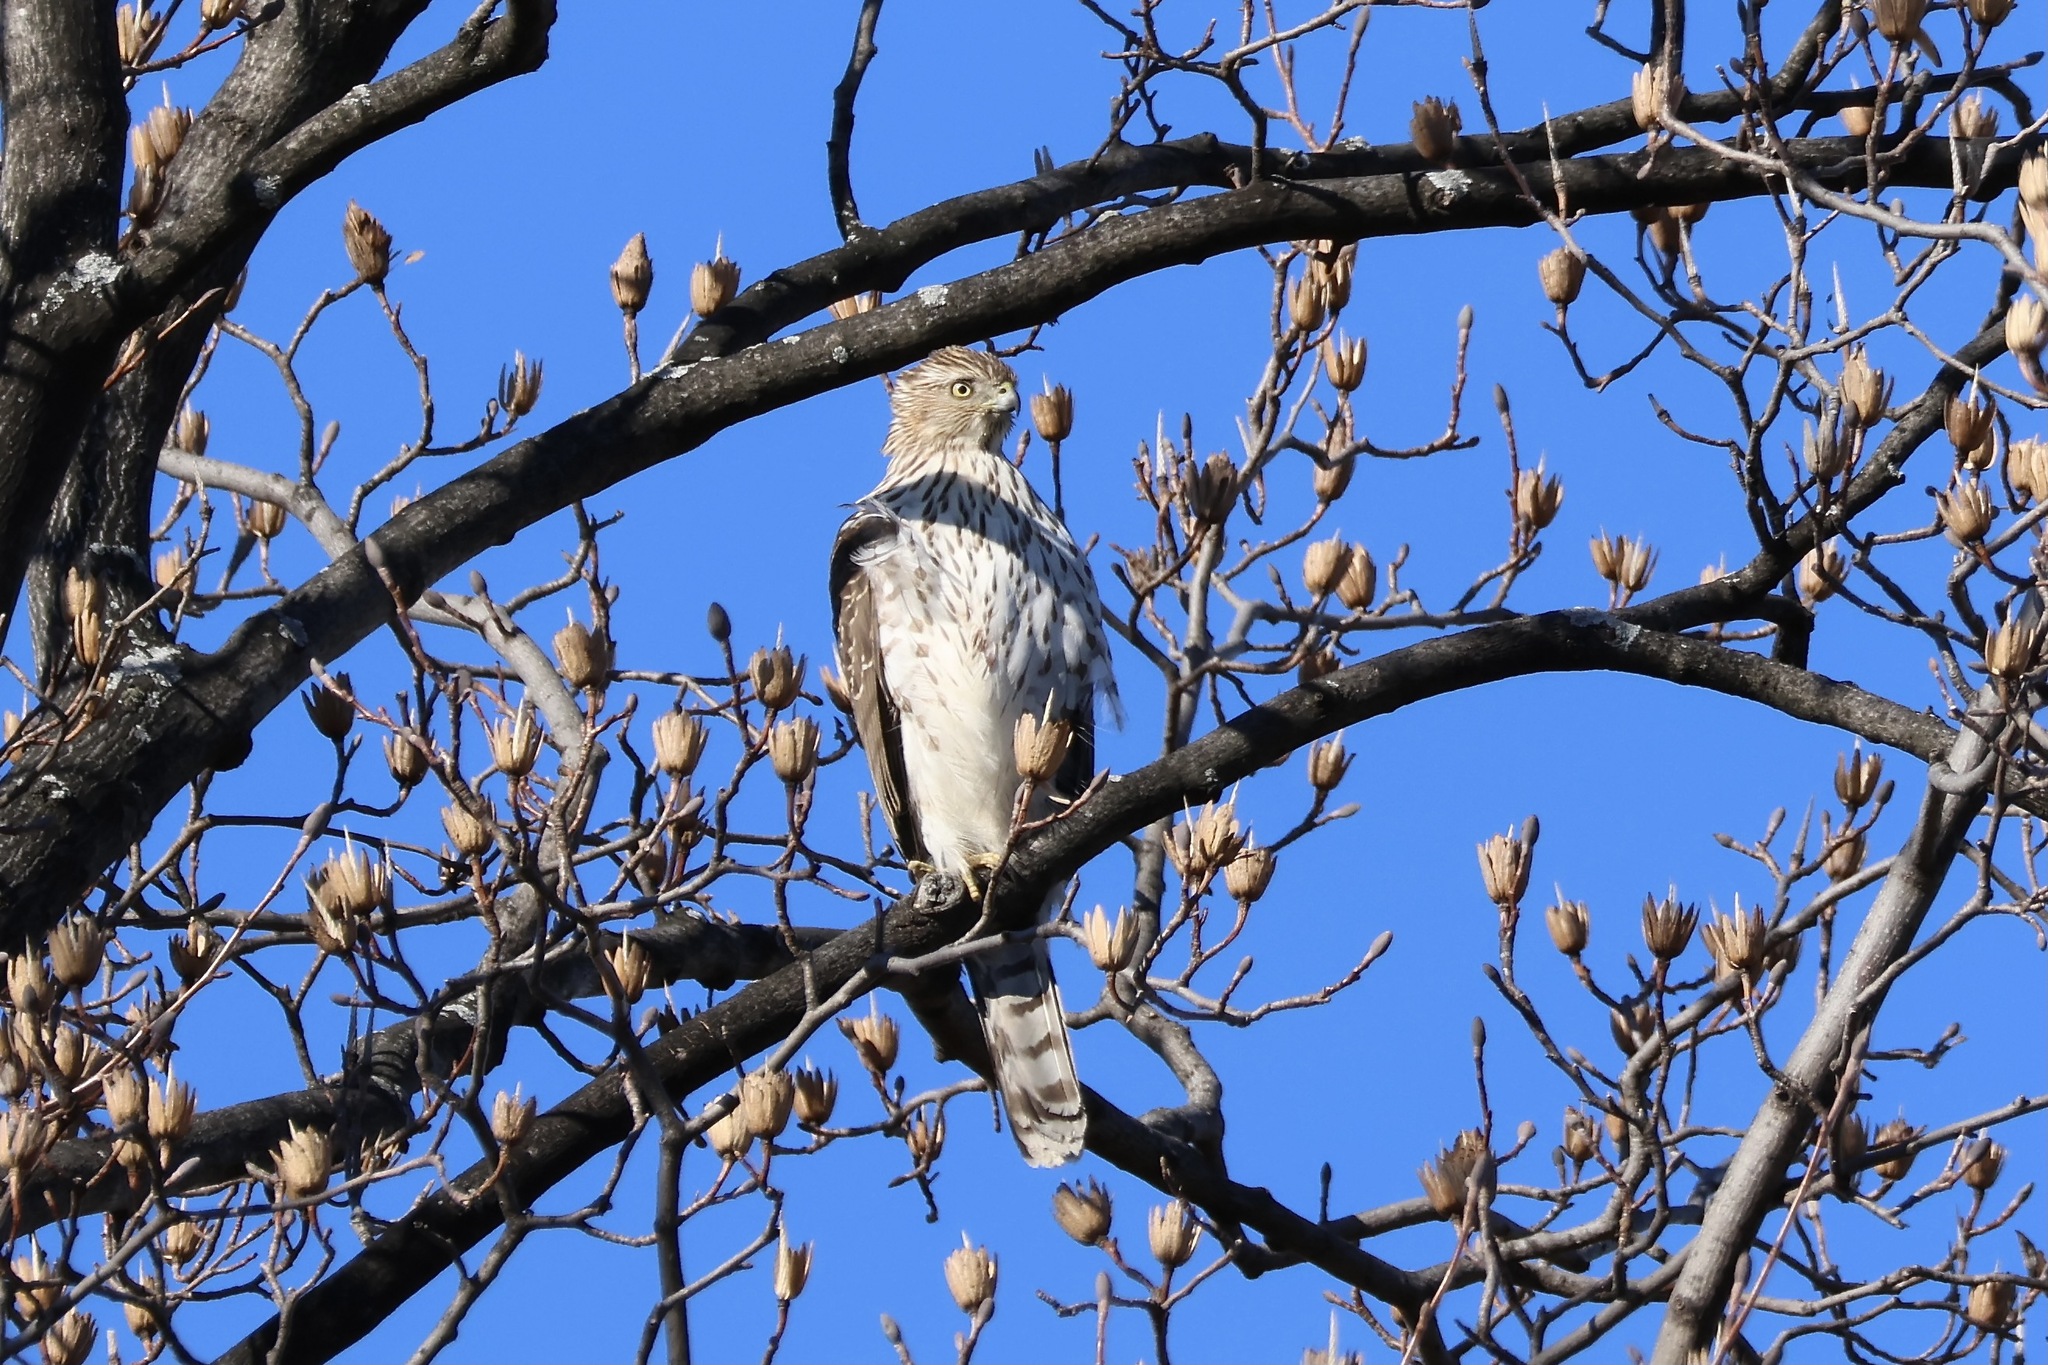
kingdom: Animalia
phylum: Chordata
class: Aves
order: Accipitriformes
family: Accipitridae
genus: Accipiter
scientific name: Accipiter cooperii
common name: Cooper's hawk
